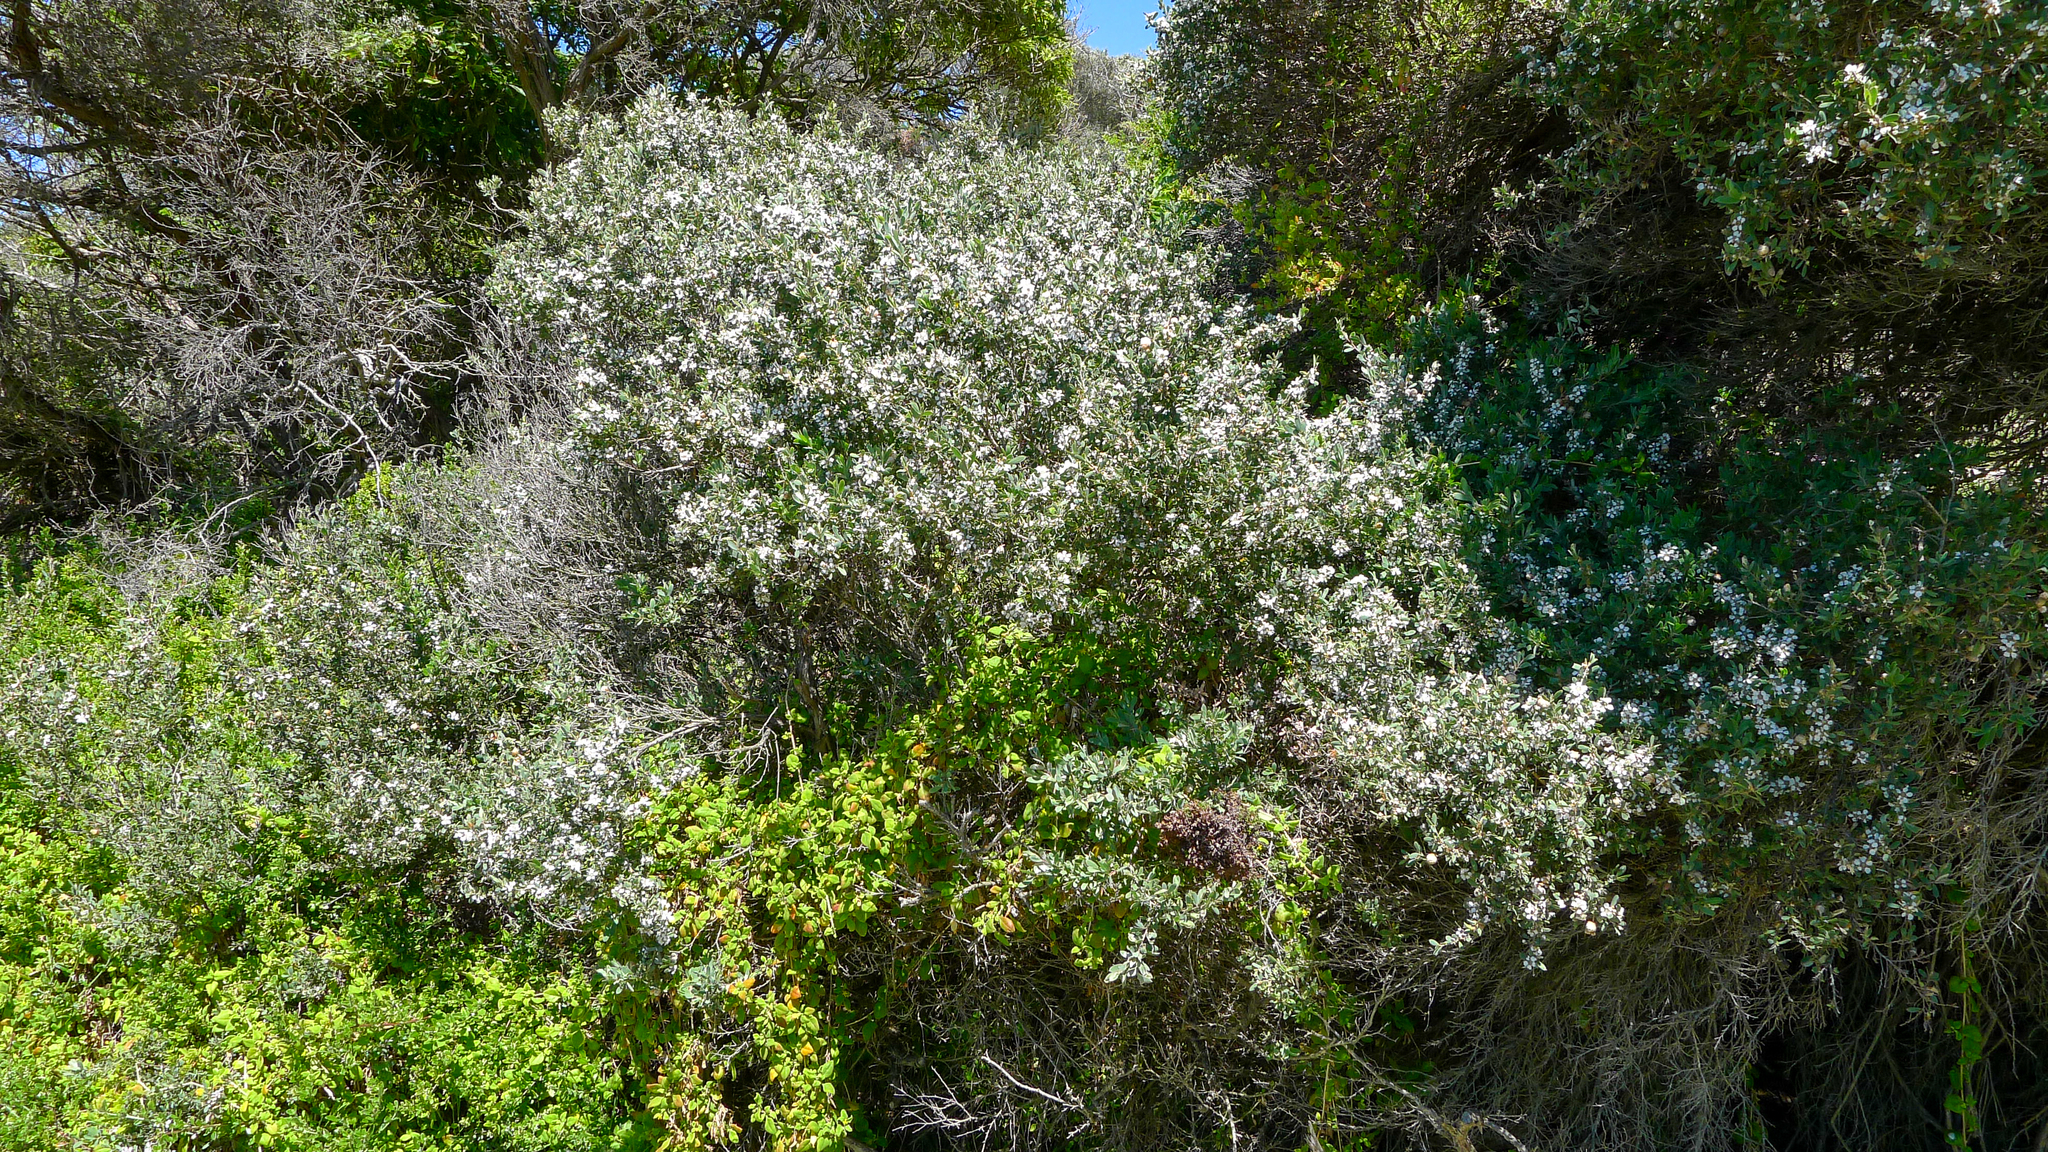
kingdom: Plantae
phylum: Tracheophyta
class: Magnoliopsida
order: Myrtales
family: Myrtaceae
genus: Leptospermum
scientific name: Leptospermum laevigatum
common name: Australian teatree
